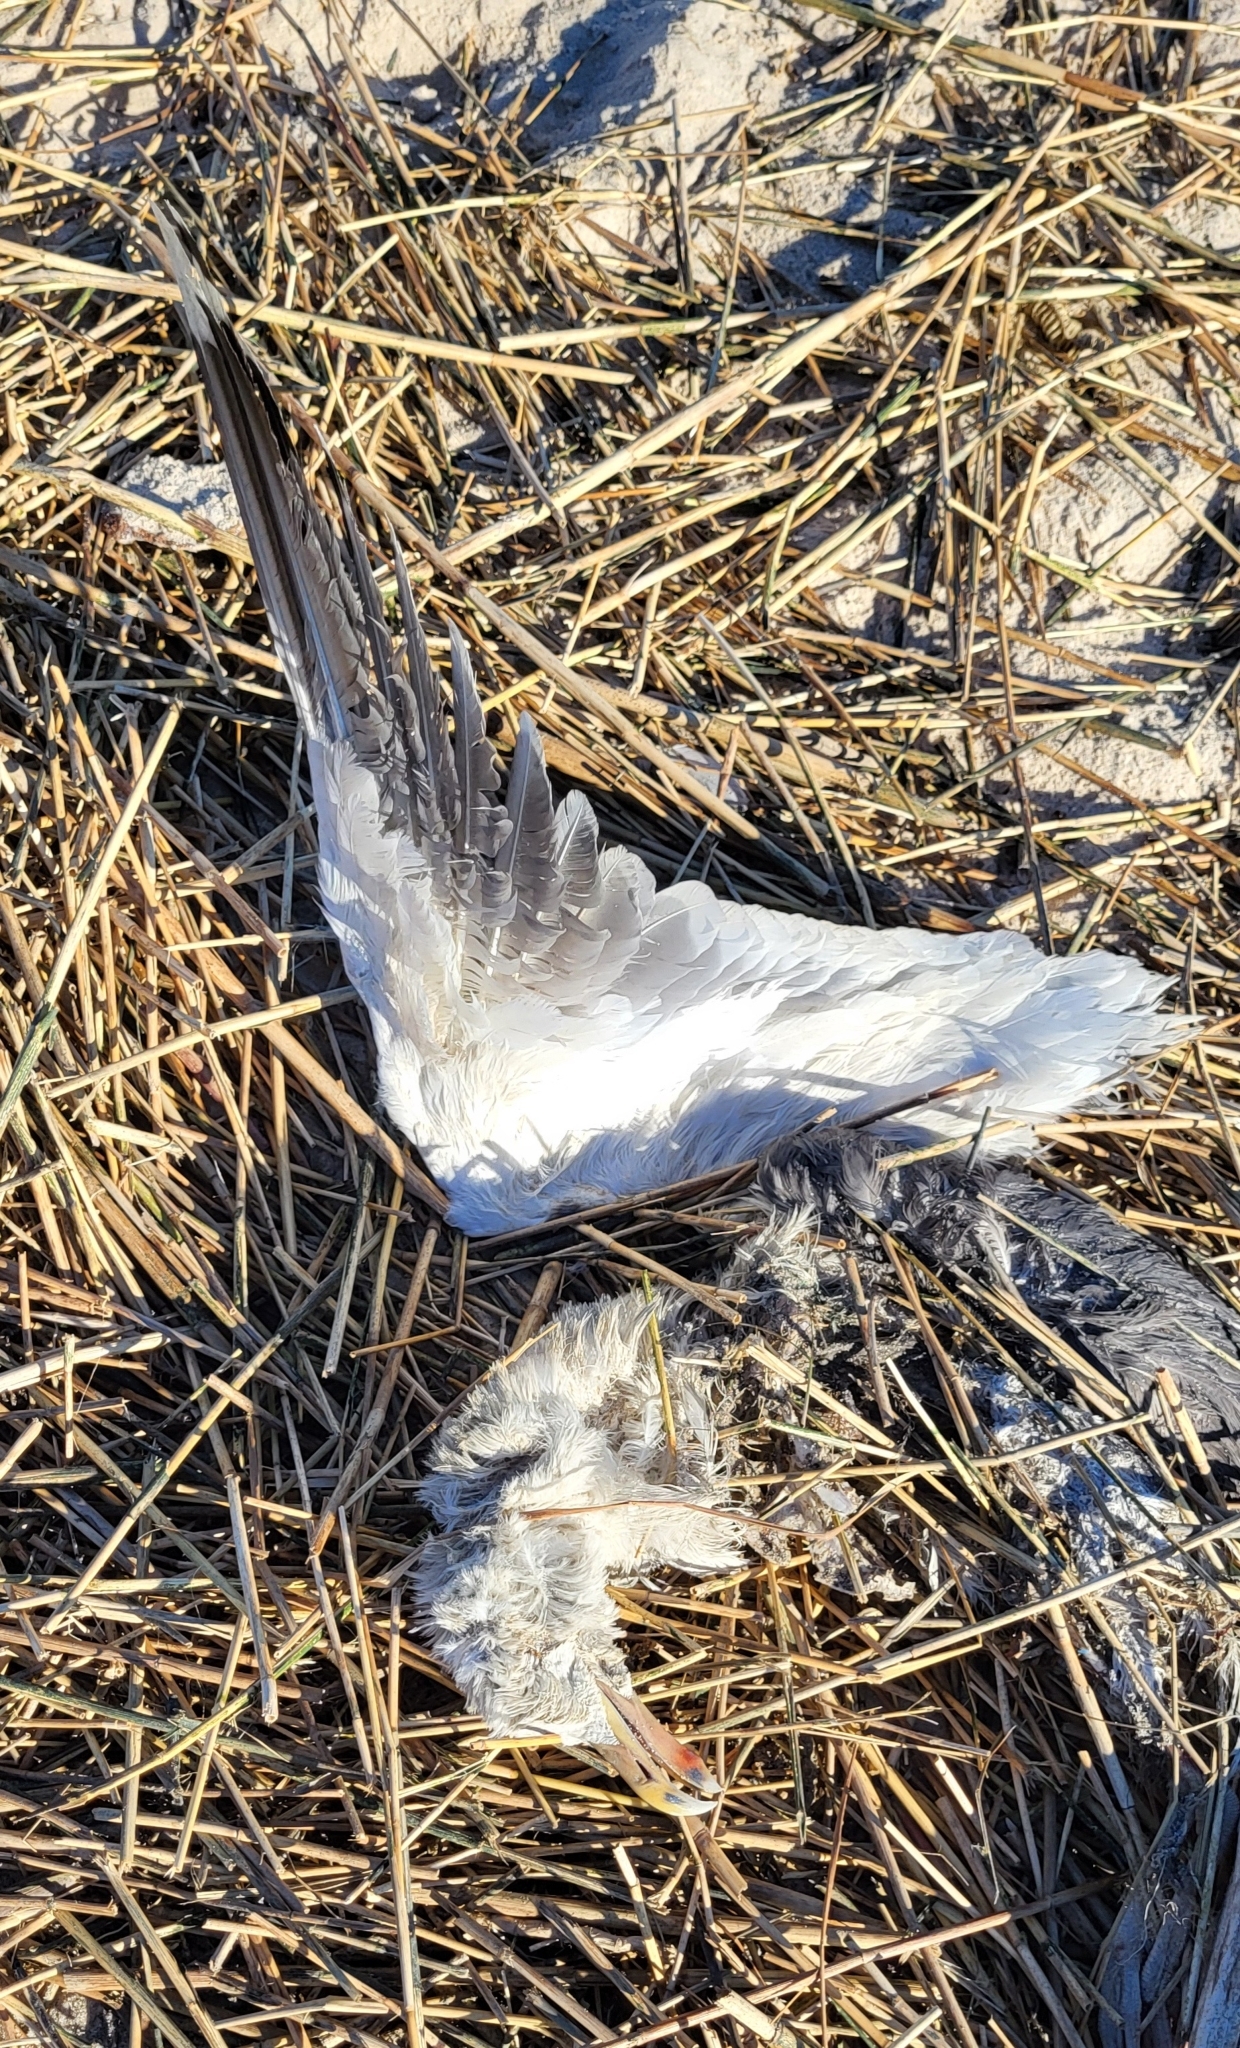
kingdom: Animalia
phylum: Chordata
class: Aves
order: Charadriiformes
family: Laridae
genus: Larus
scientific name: Larus marinus
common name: Great black-backed gull
